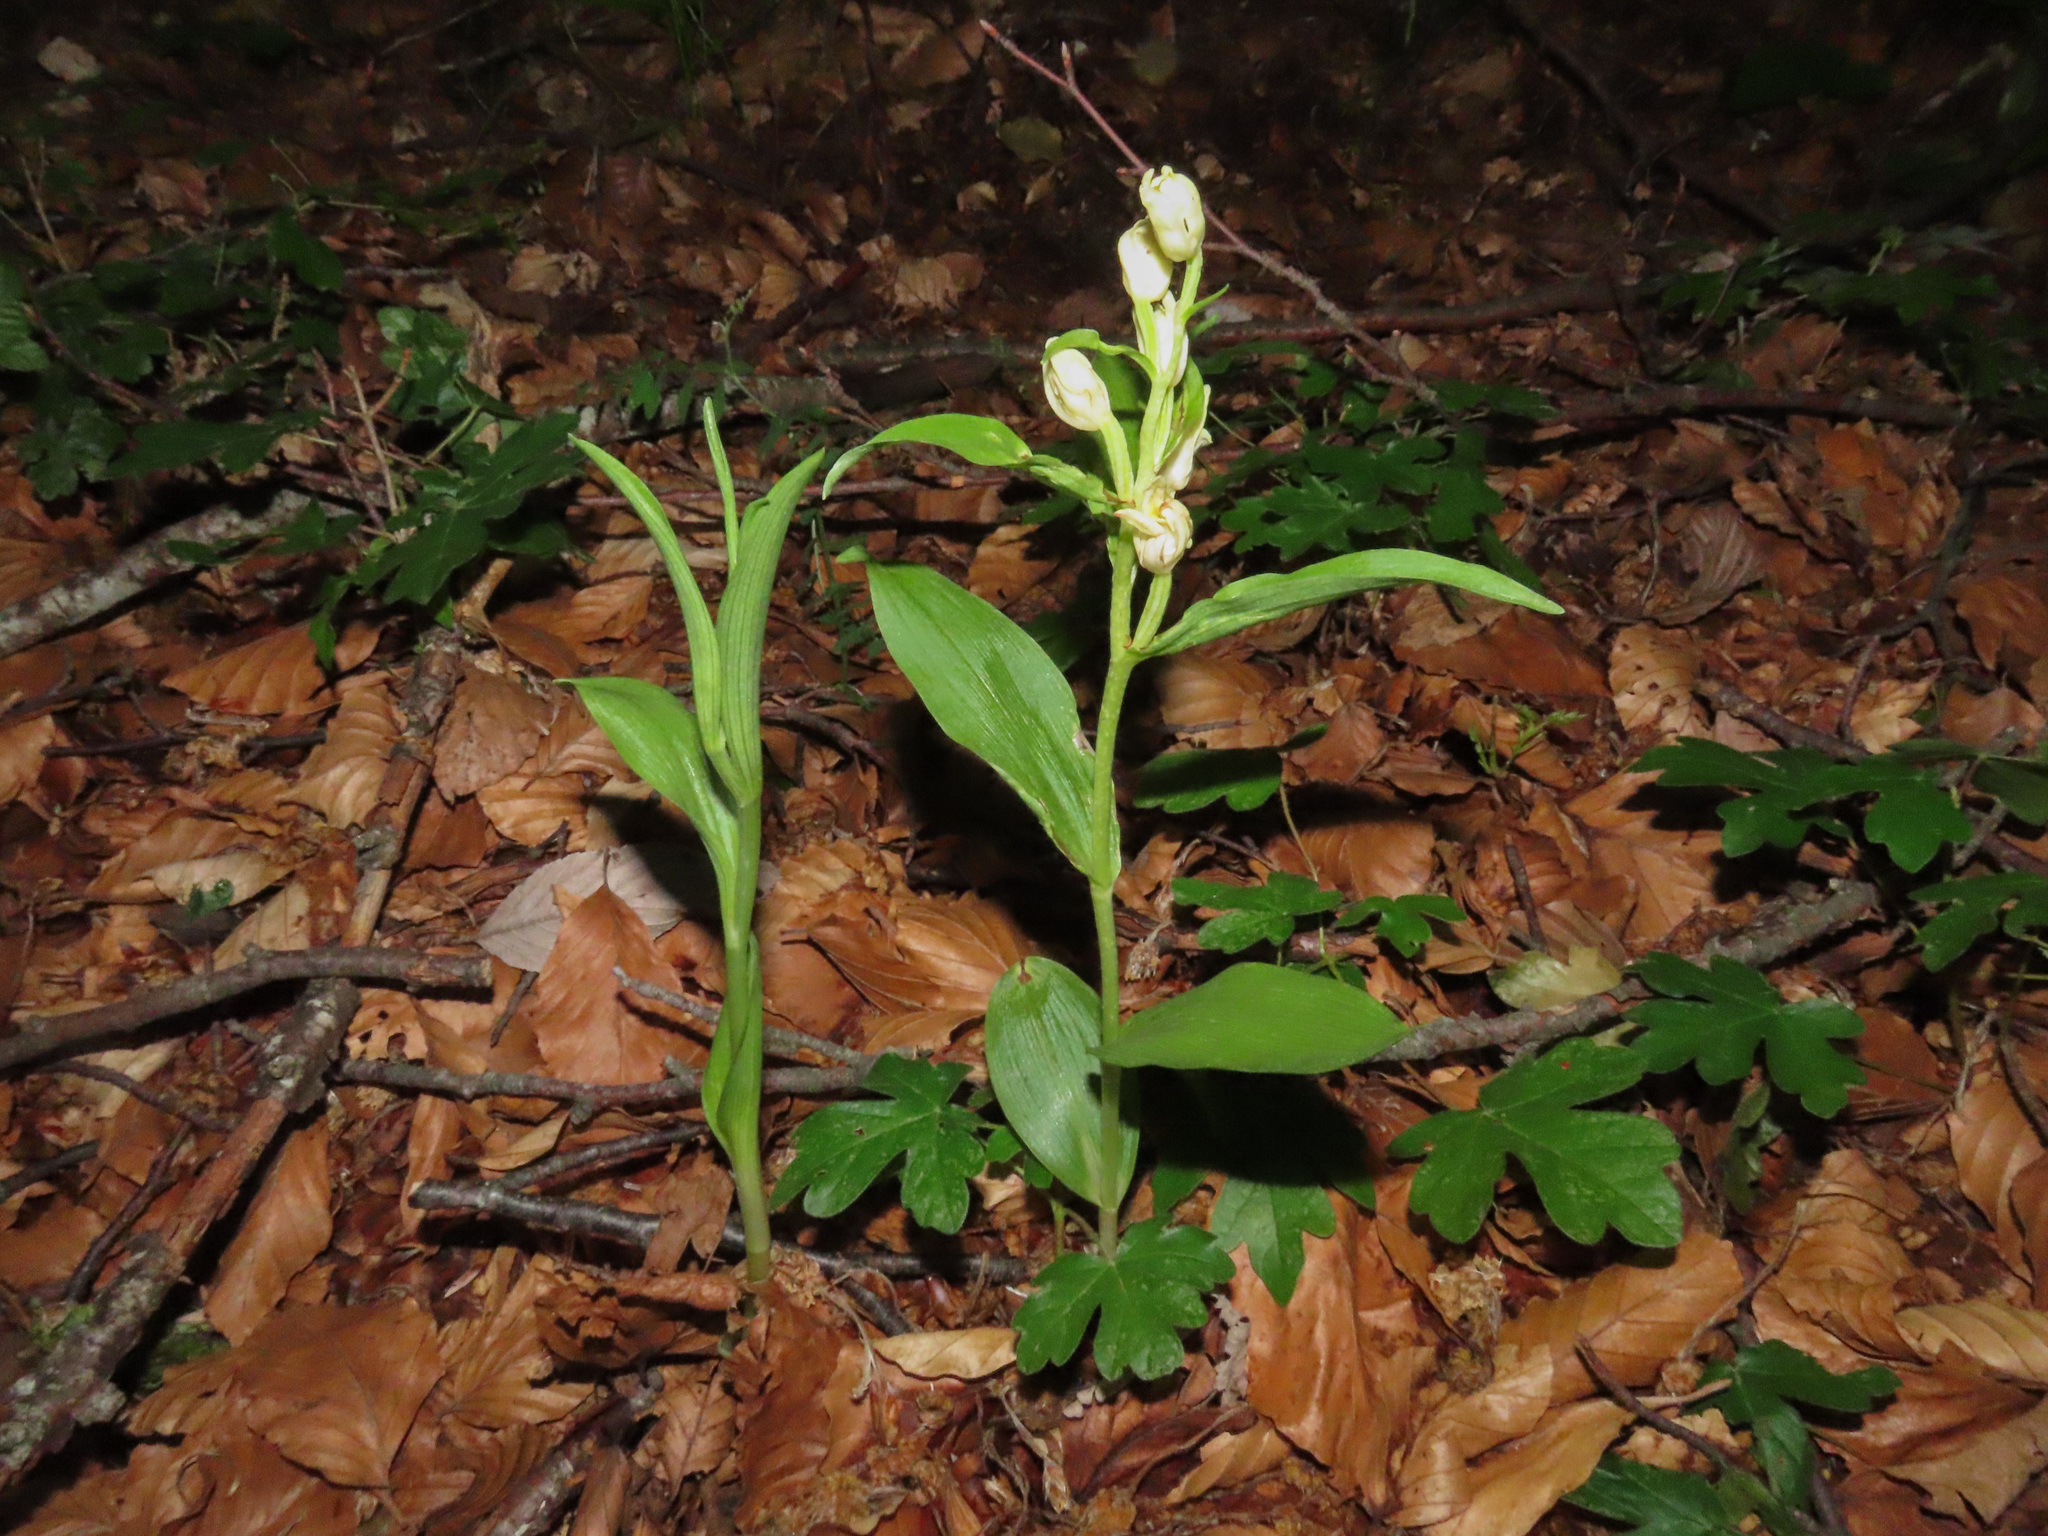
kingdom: Plantae
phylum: Tracheophyta
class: Liliopsida
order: Asparagales
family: Orchidaceae
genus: Cephalanthera
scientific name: Cephalanthera damasonium
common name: White helleborine
